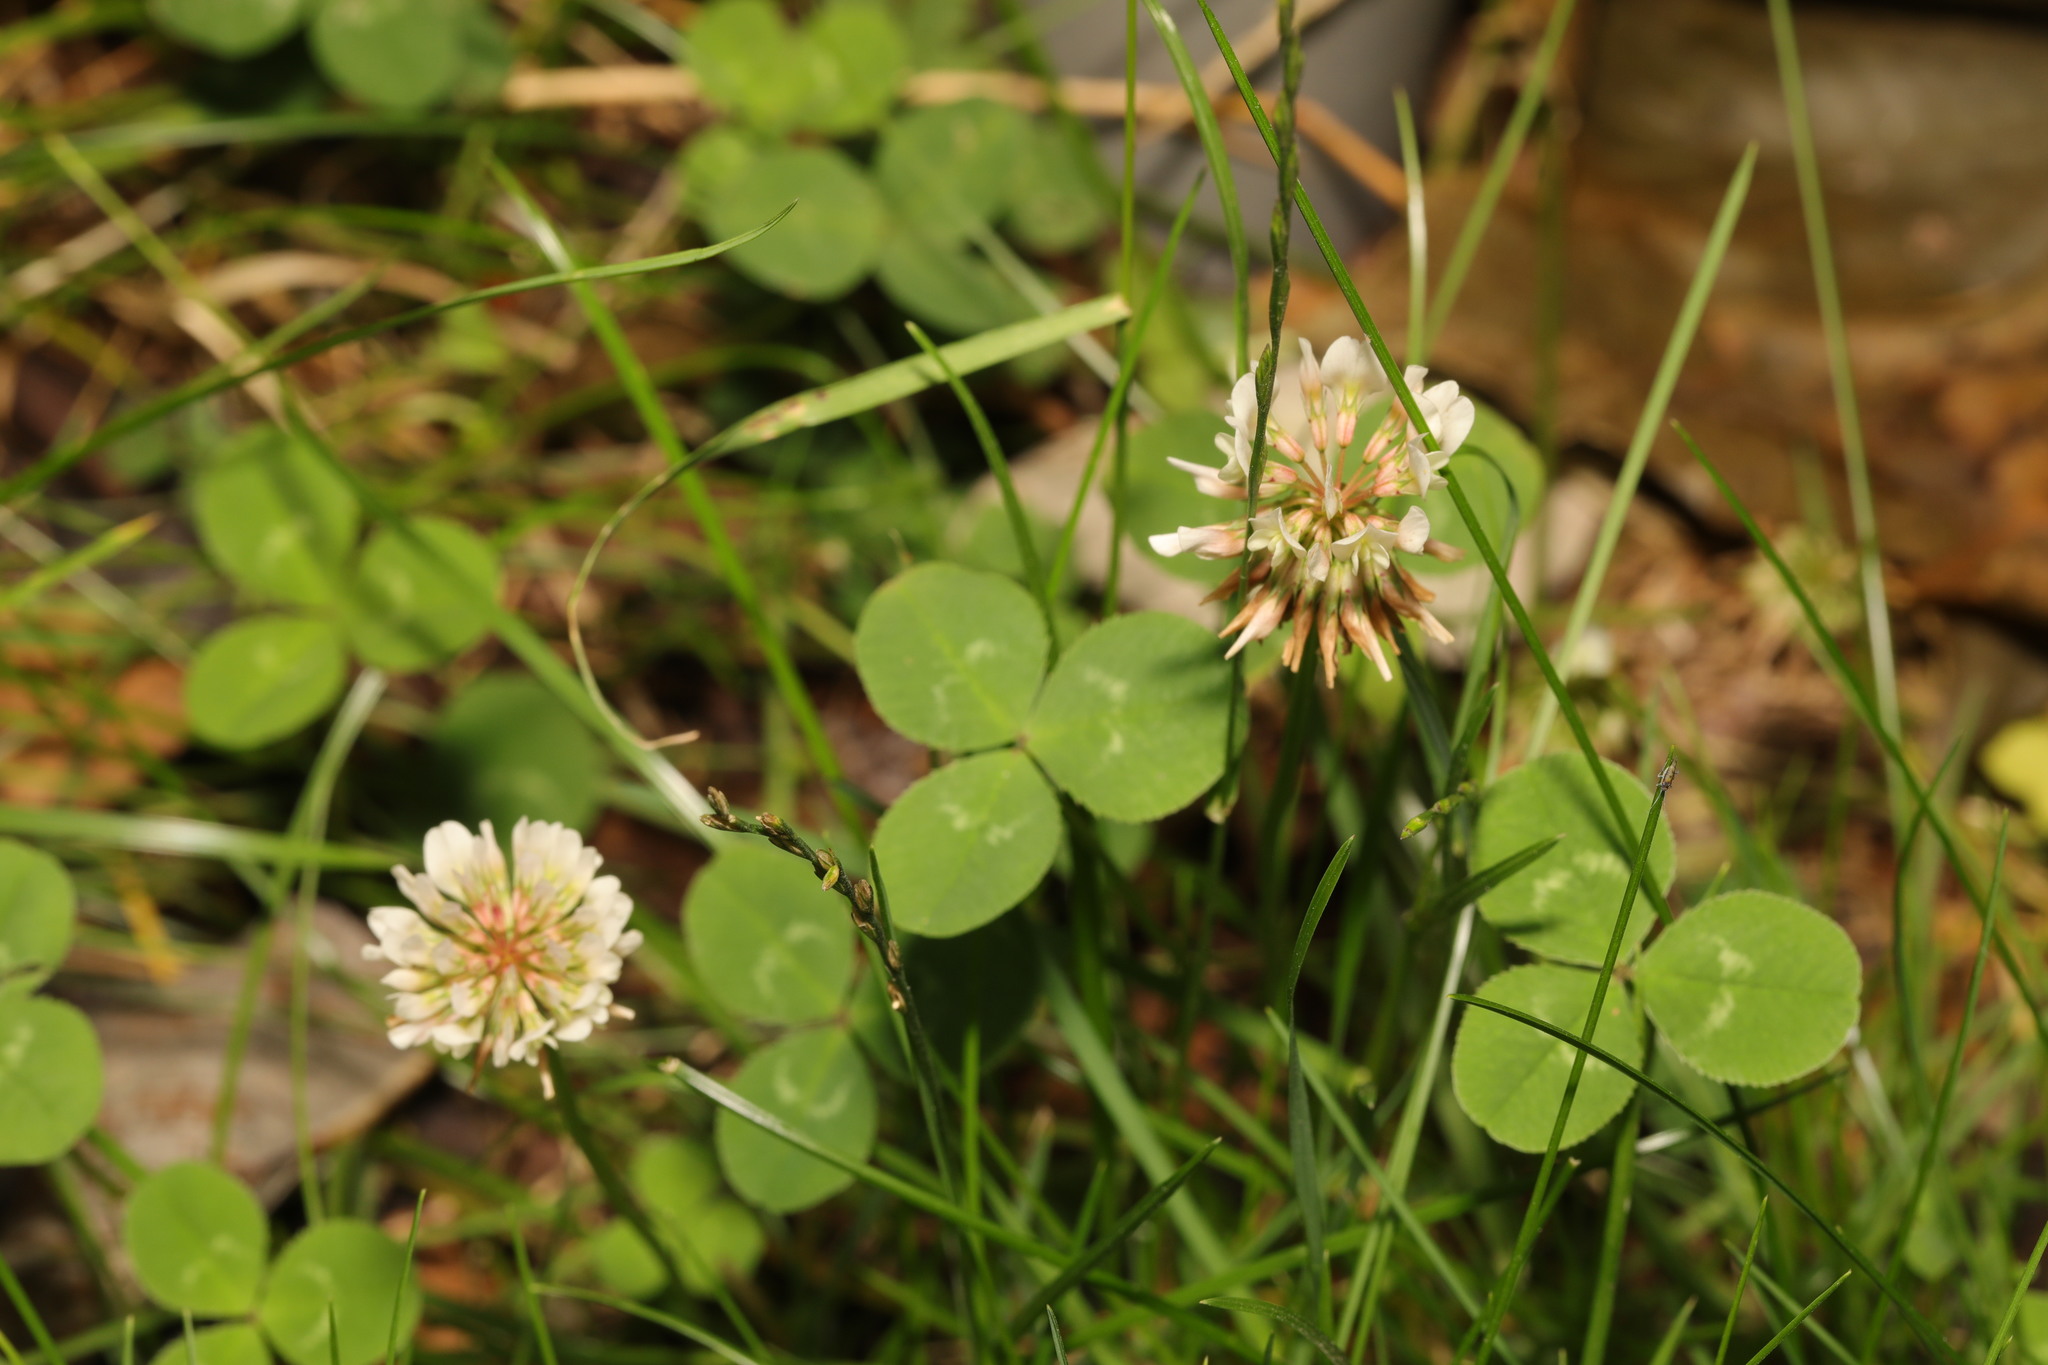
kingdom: Plantae
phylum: Tracheophyta
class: Magnoliopsida
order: Fabales
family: Fabaceae
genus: Trifolium
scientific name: Trifolium repens
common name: White clover
